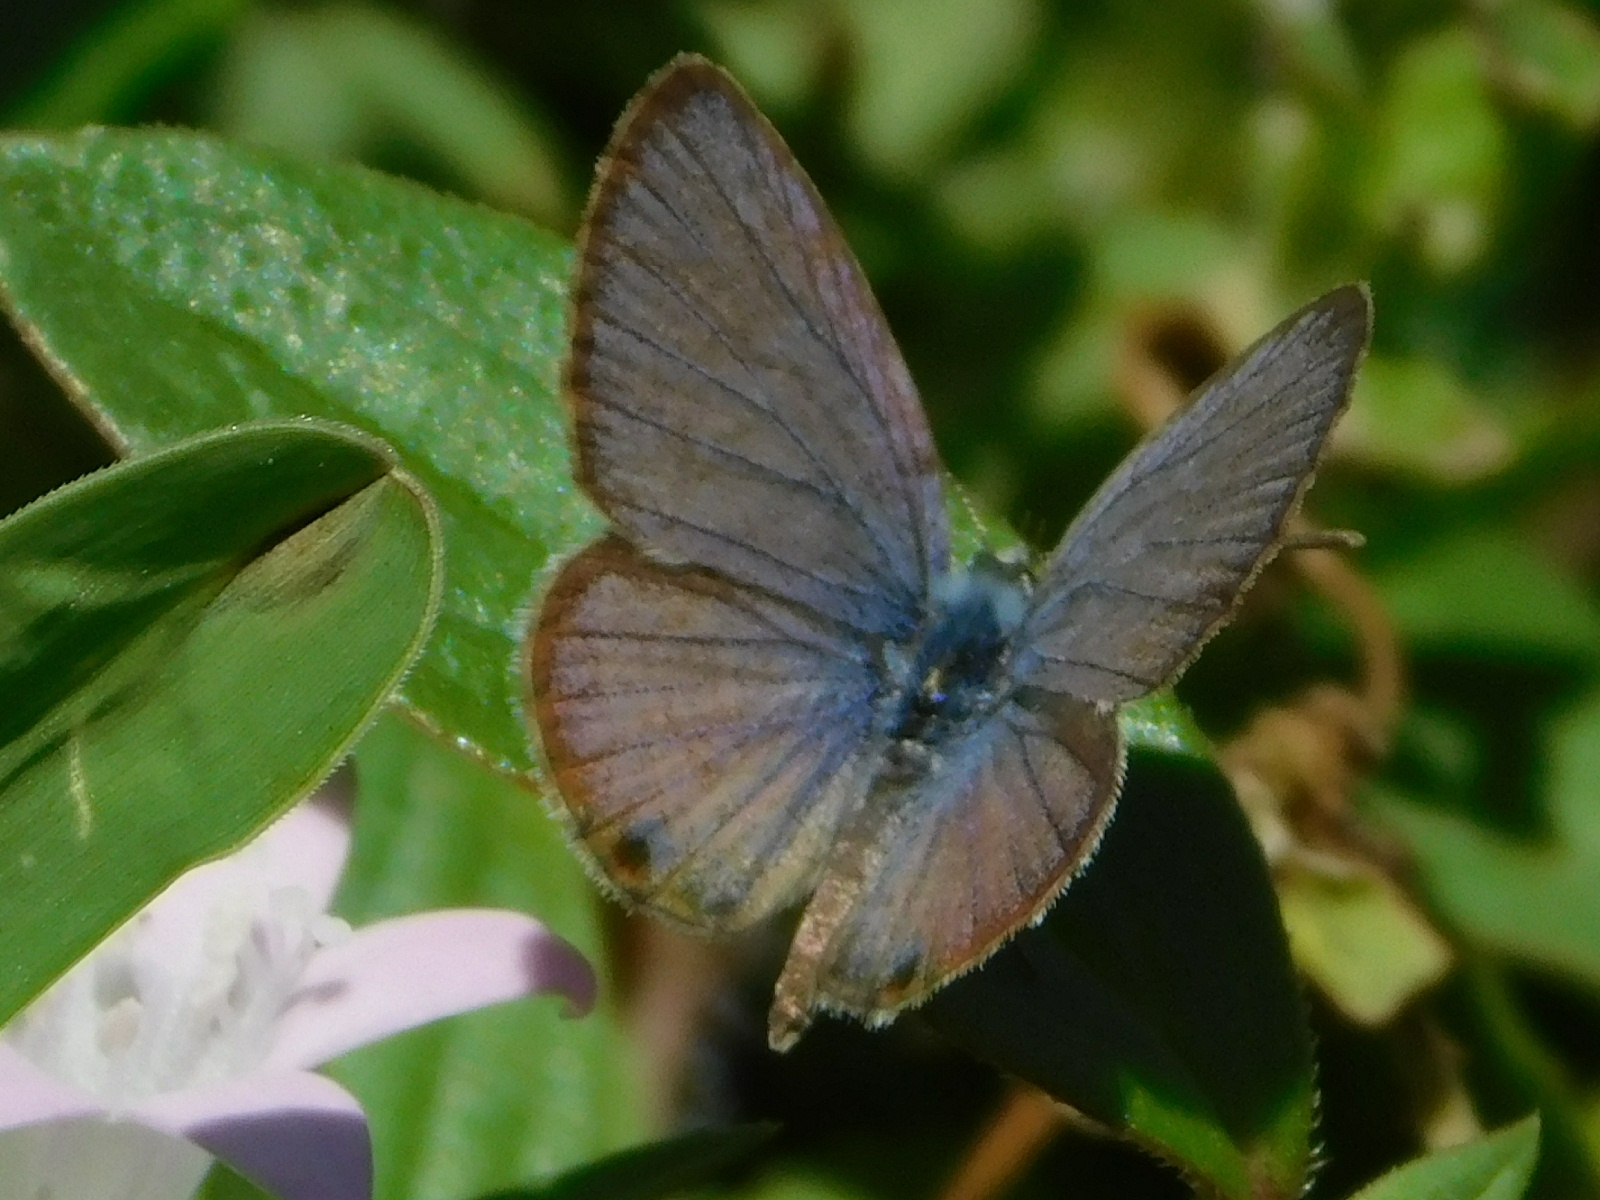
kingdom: Animalia
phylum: Arthropoda
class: Insecta
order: Lepidoptera
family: Lycaenidae
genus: Hemiargus
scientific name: Hemiargus ceraunus
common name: Ceraunus blue
